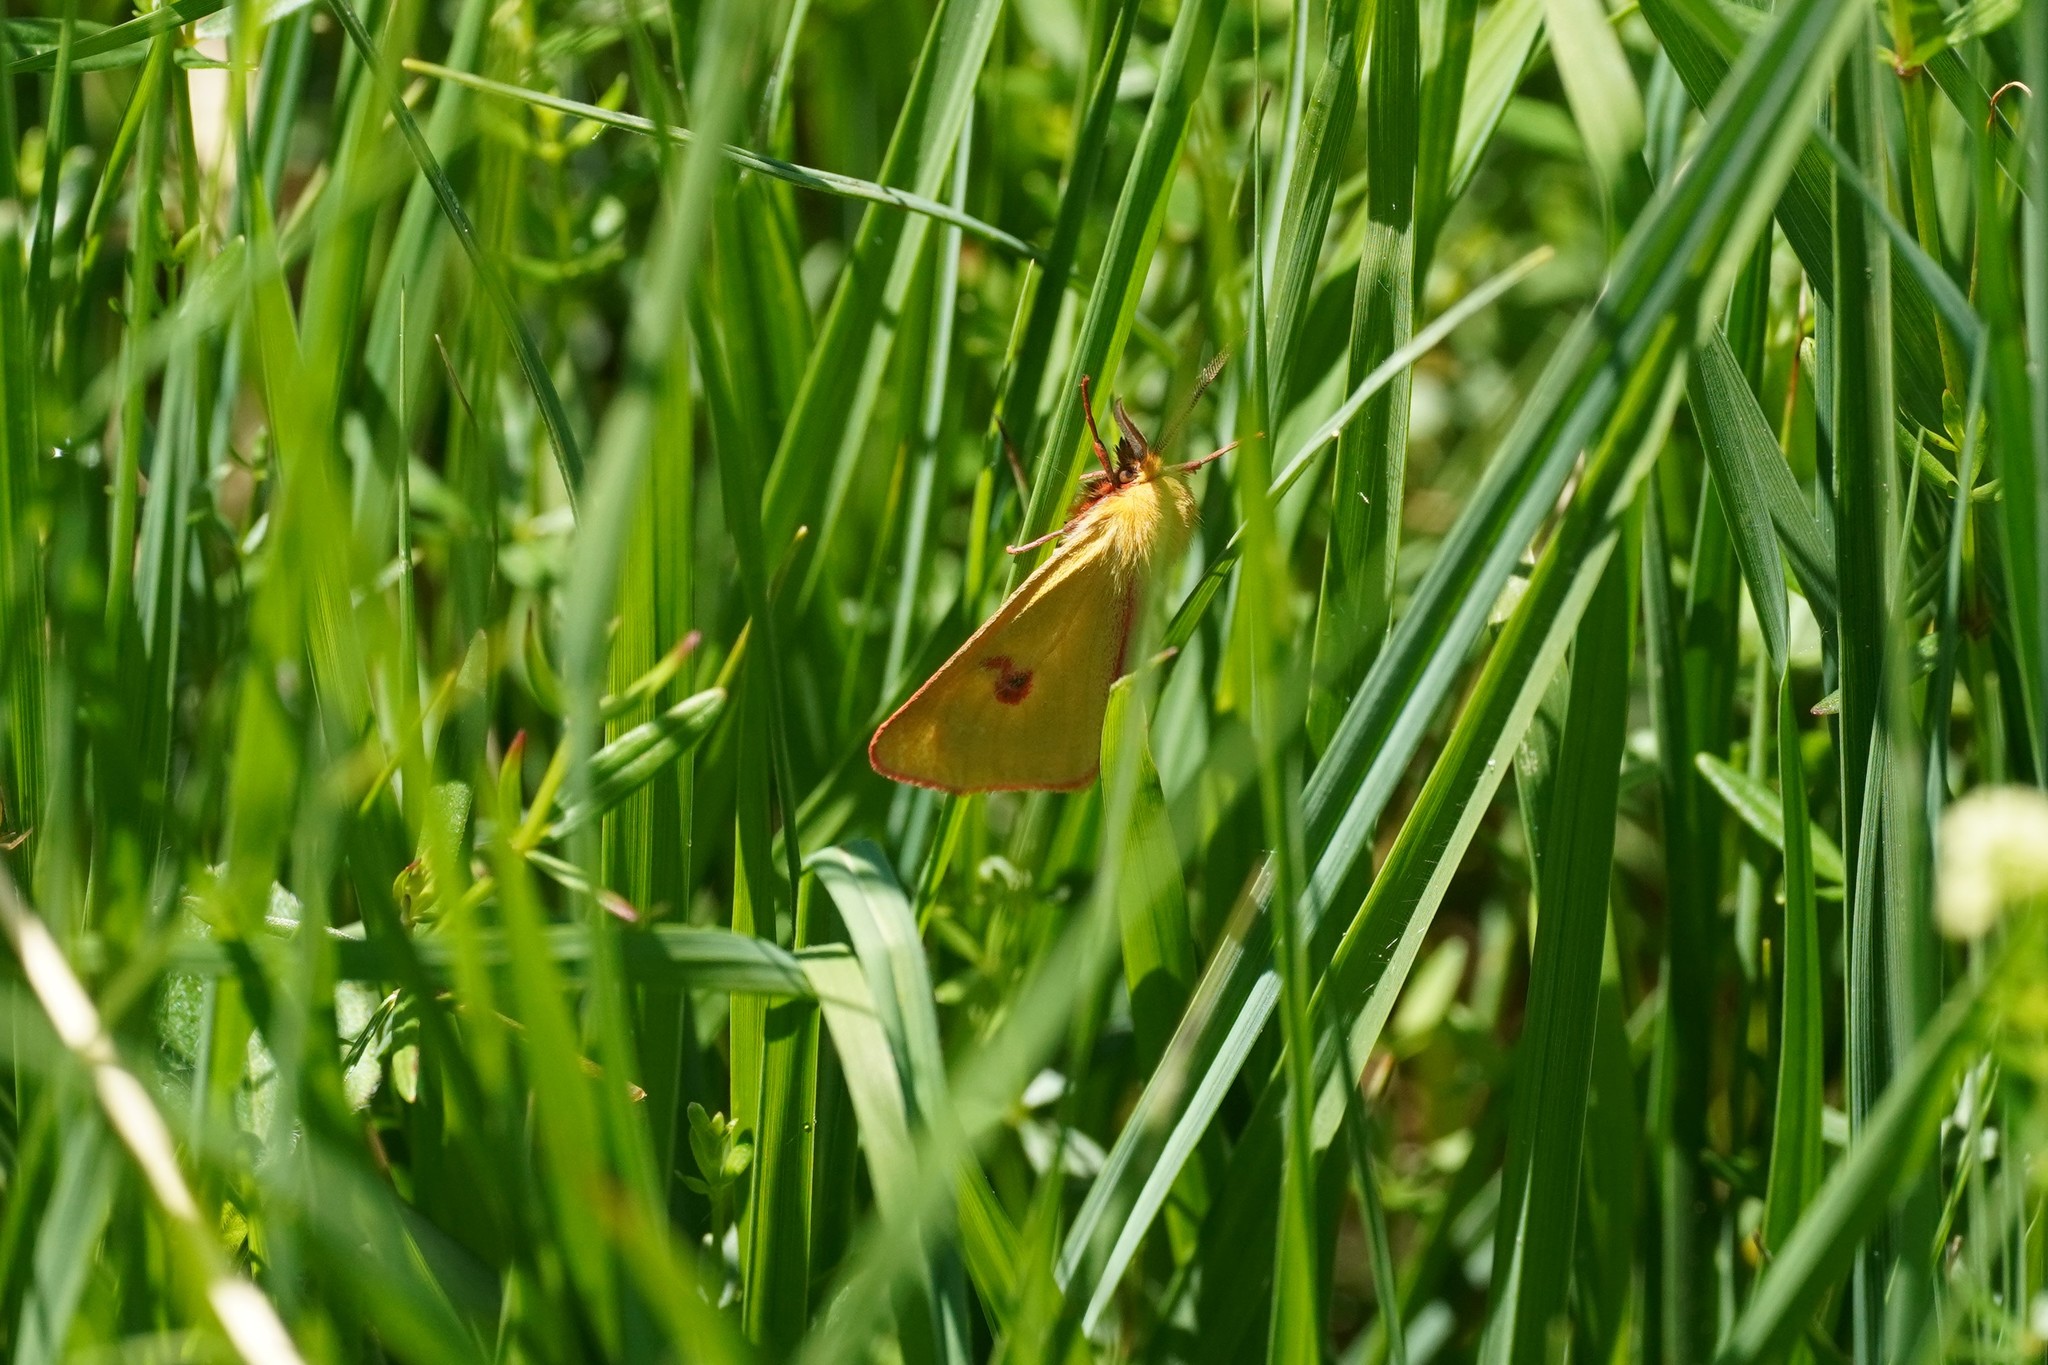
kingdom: Animalia
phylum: Arthropoda
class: Insecta
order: Lepidoptera
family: Erebidae
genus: Diacrisia
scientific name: Diacrisia sannio
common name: Clouded buff
